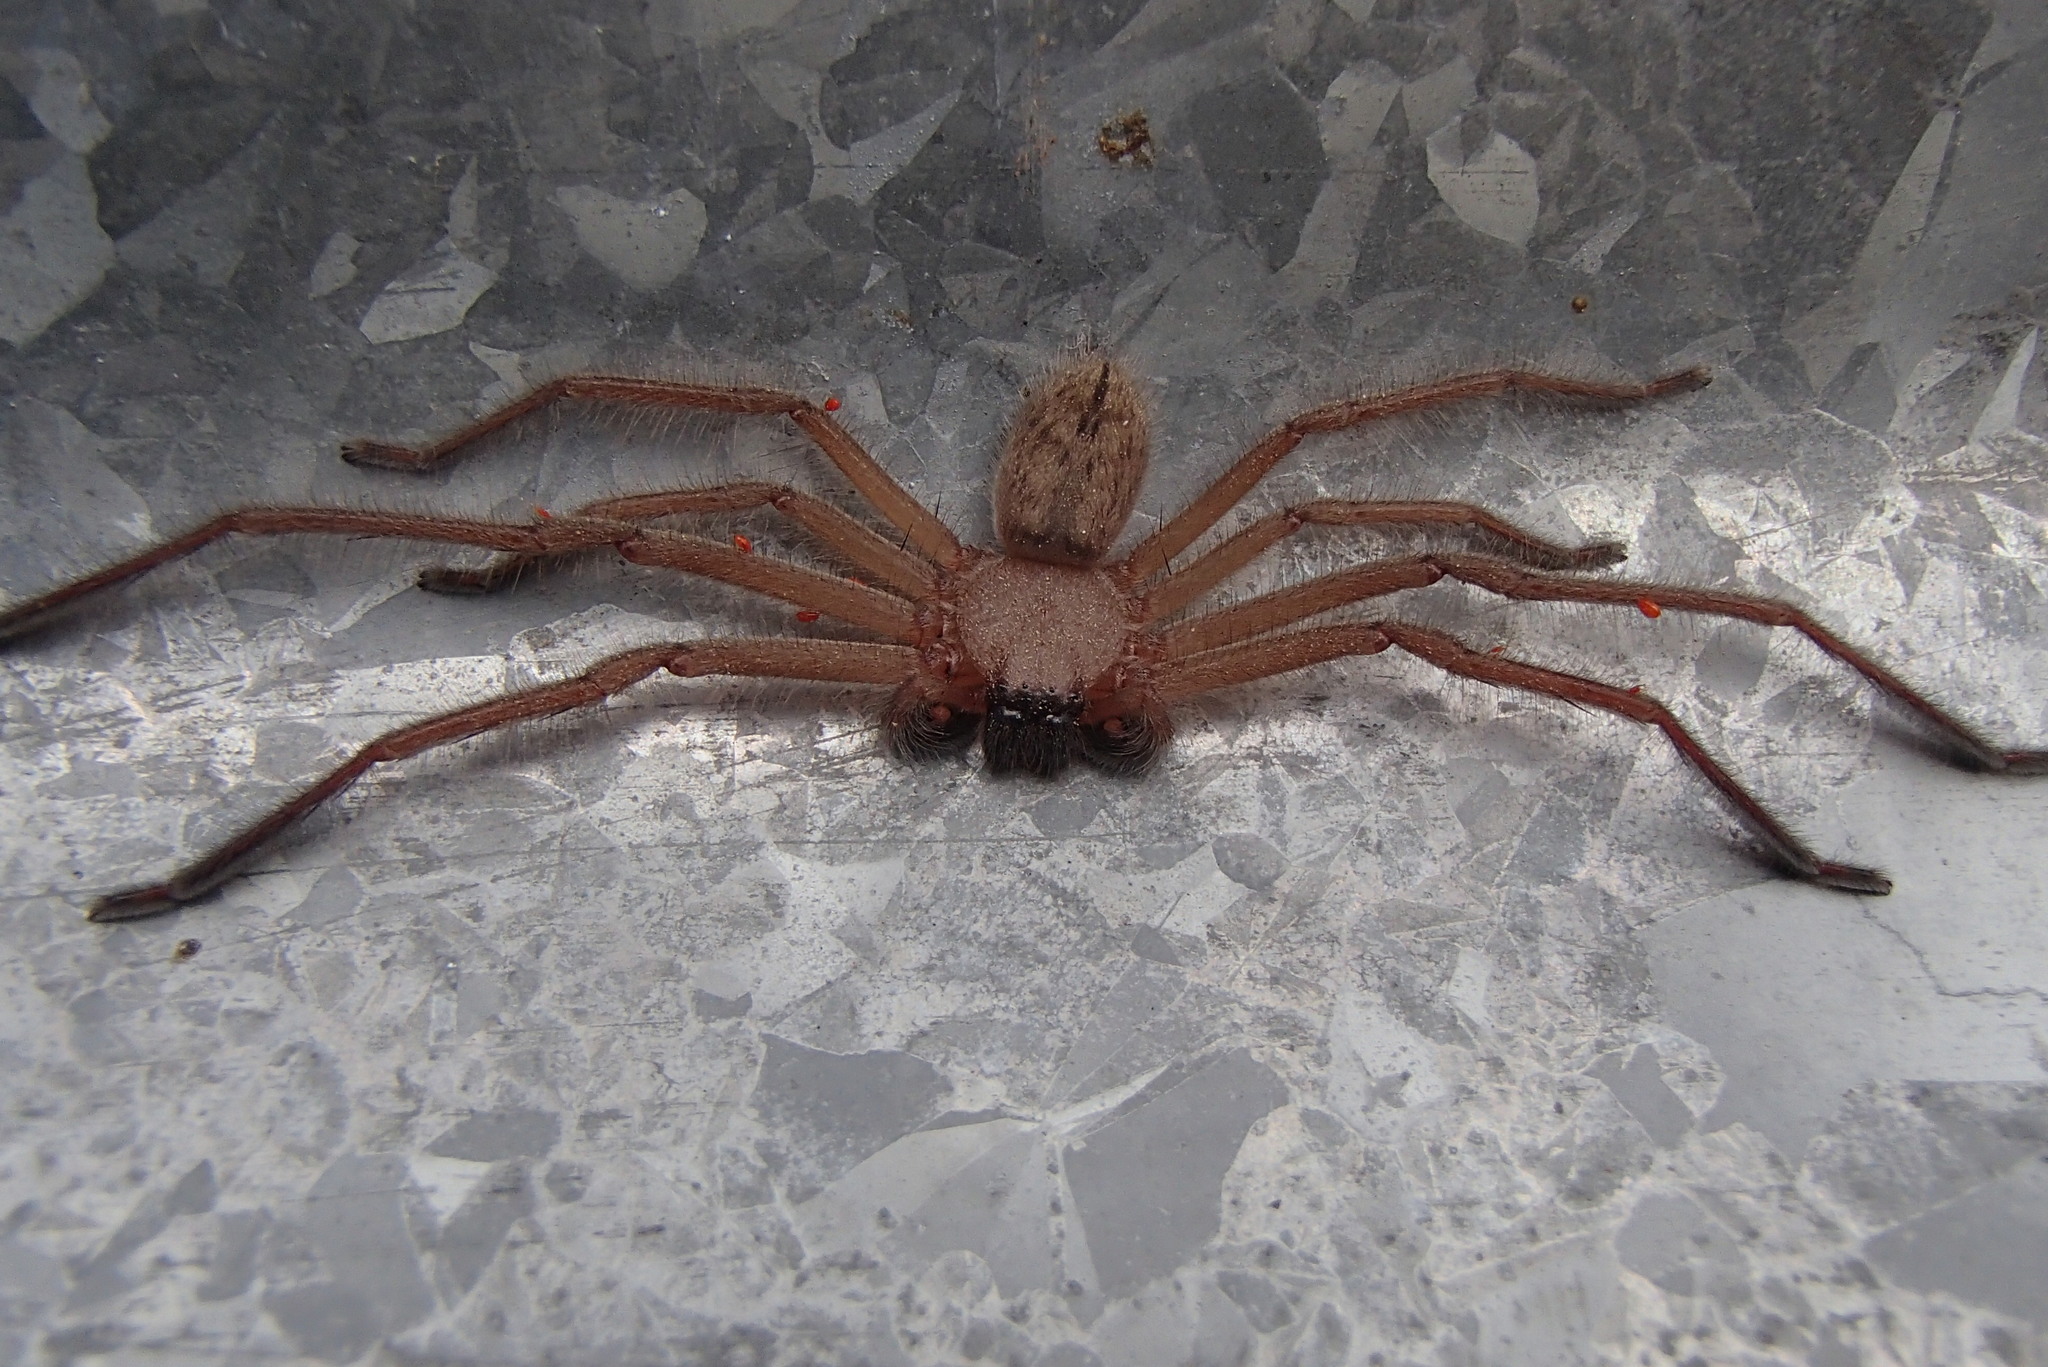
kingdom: Animalia
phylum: Arthropoda
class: Arachnida
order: Araneae
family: Sparassidae
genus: Delena
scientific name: Delena cancerides
